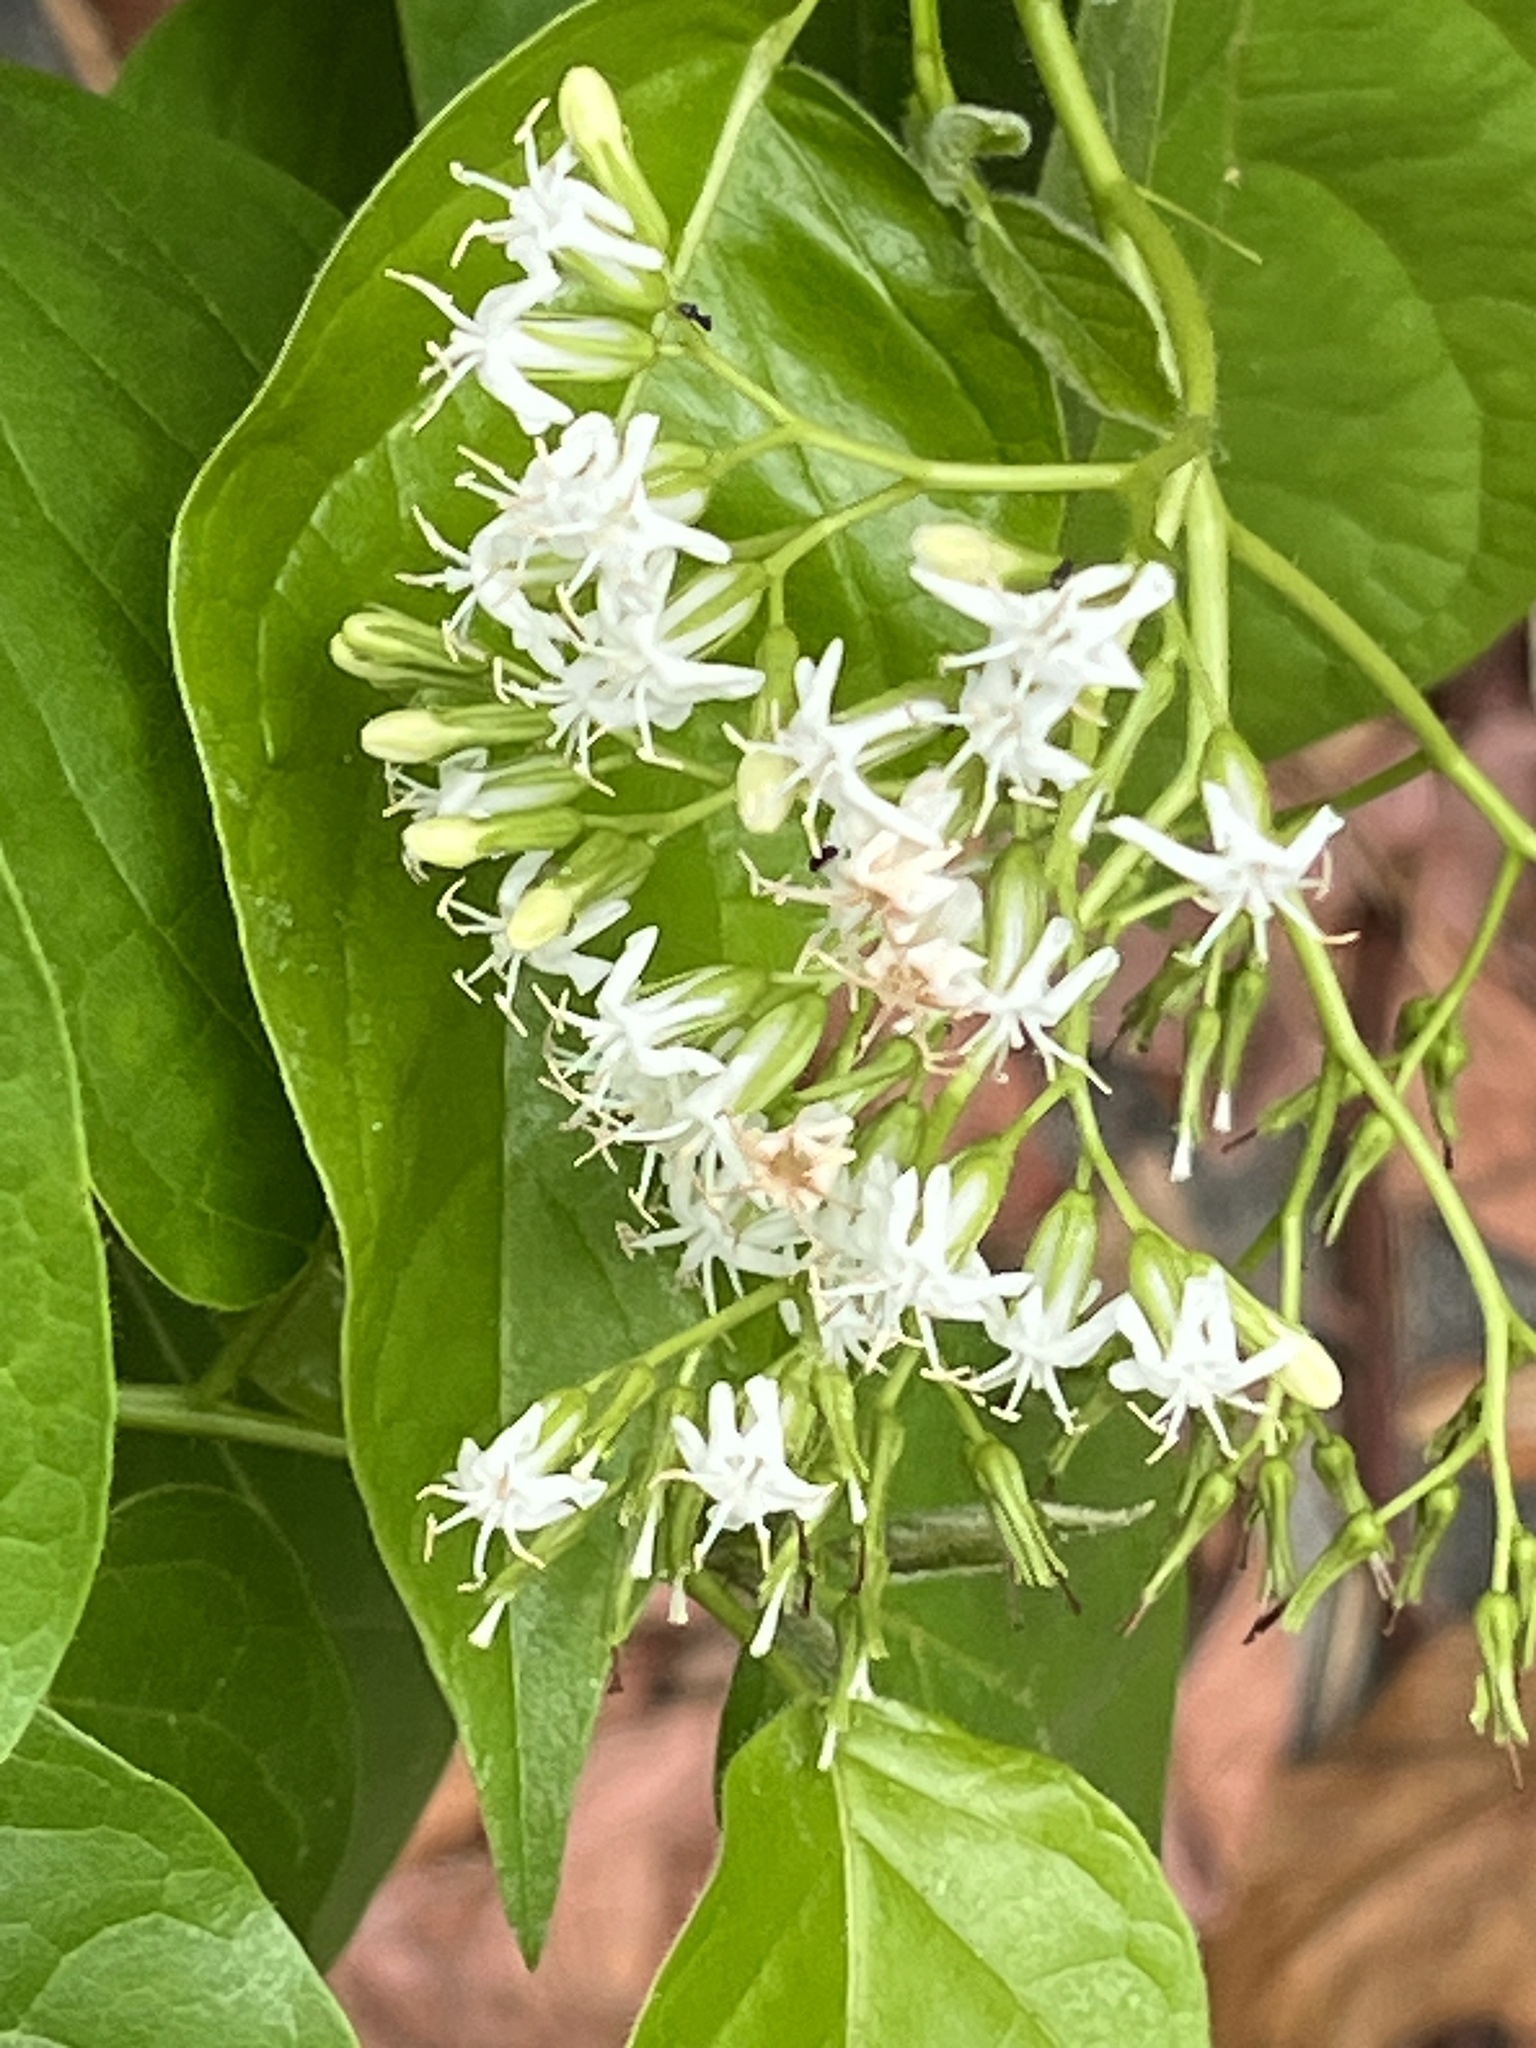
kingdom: Plantae
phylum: Tracheophyta
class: Magnoliopsida
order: Boraginales
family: Ehretiaceae
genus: Ehretia
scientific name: Ehretia resinosa
